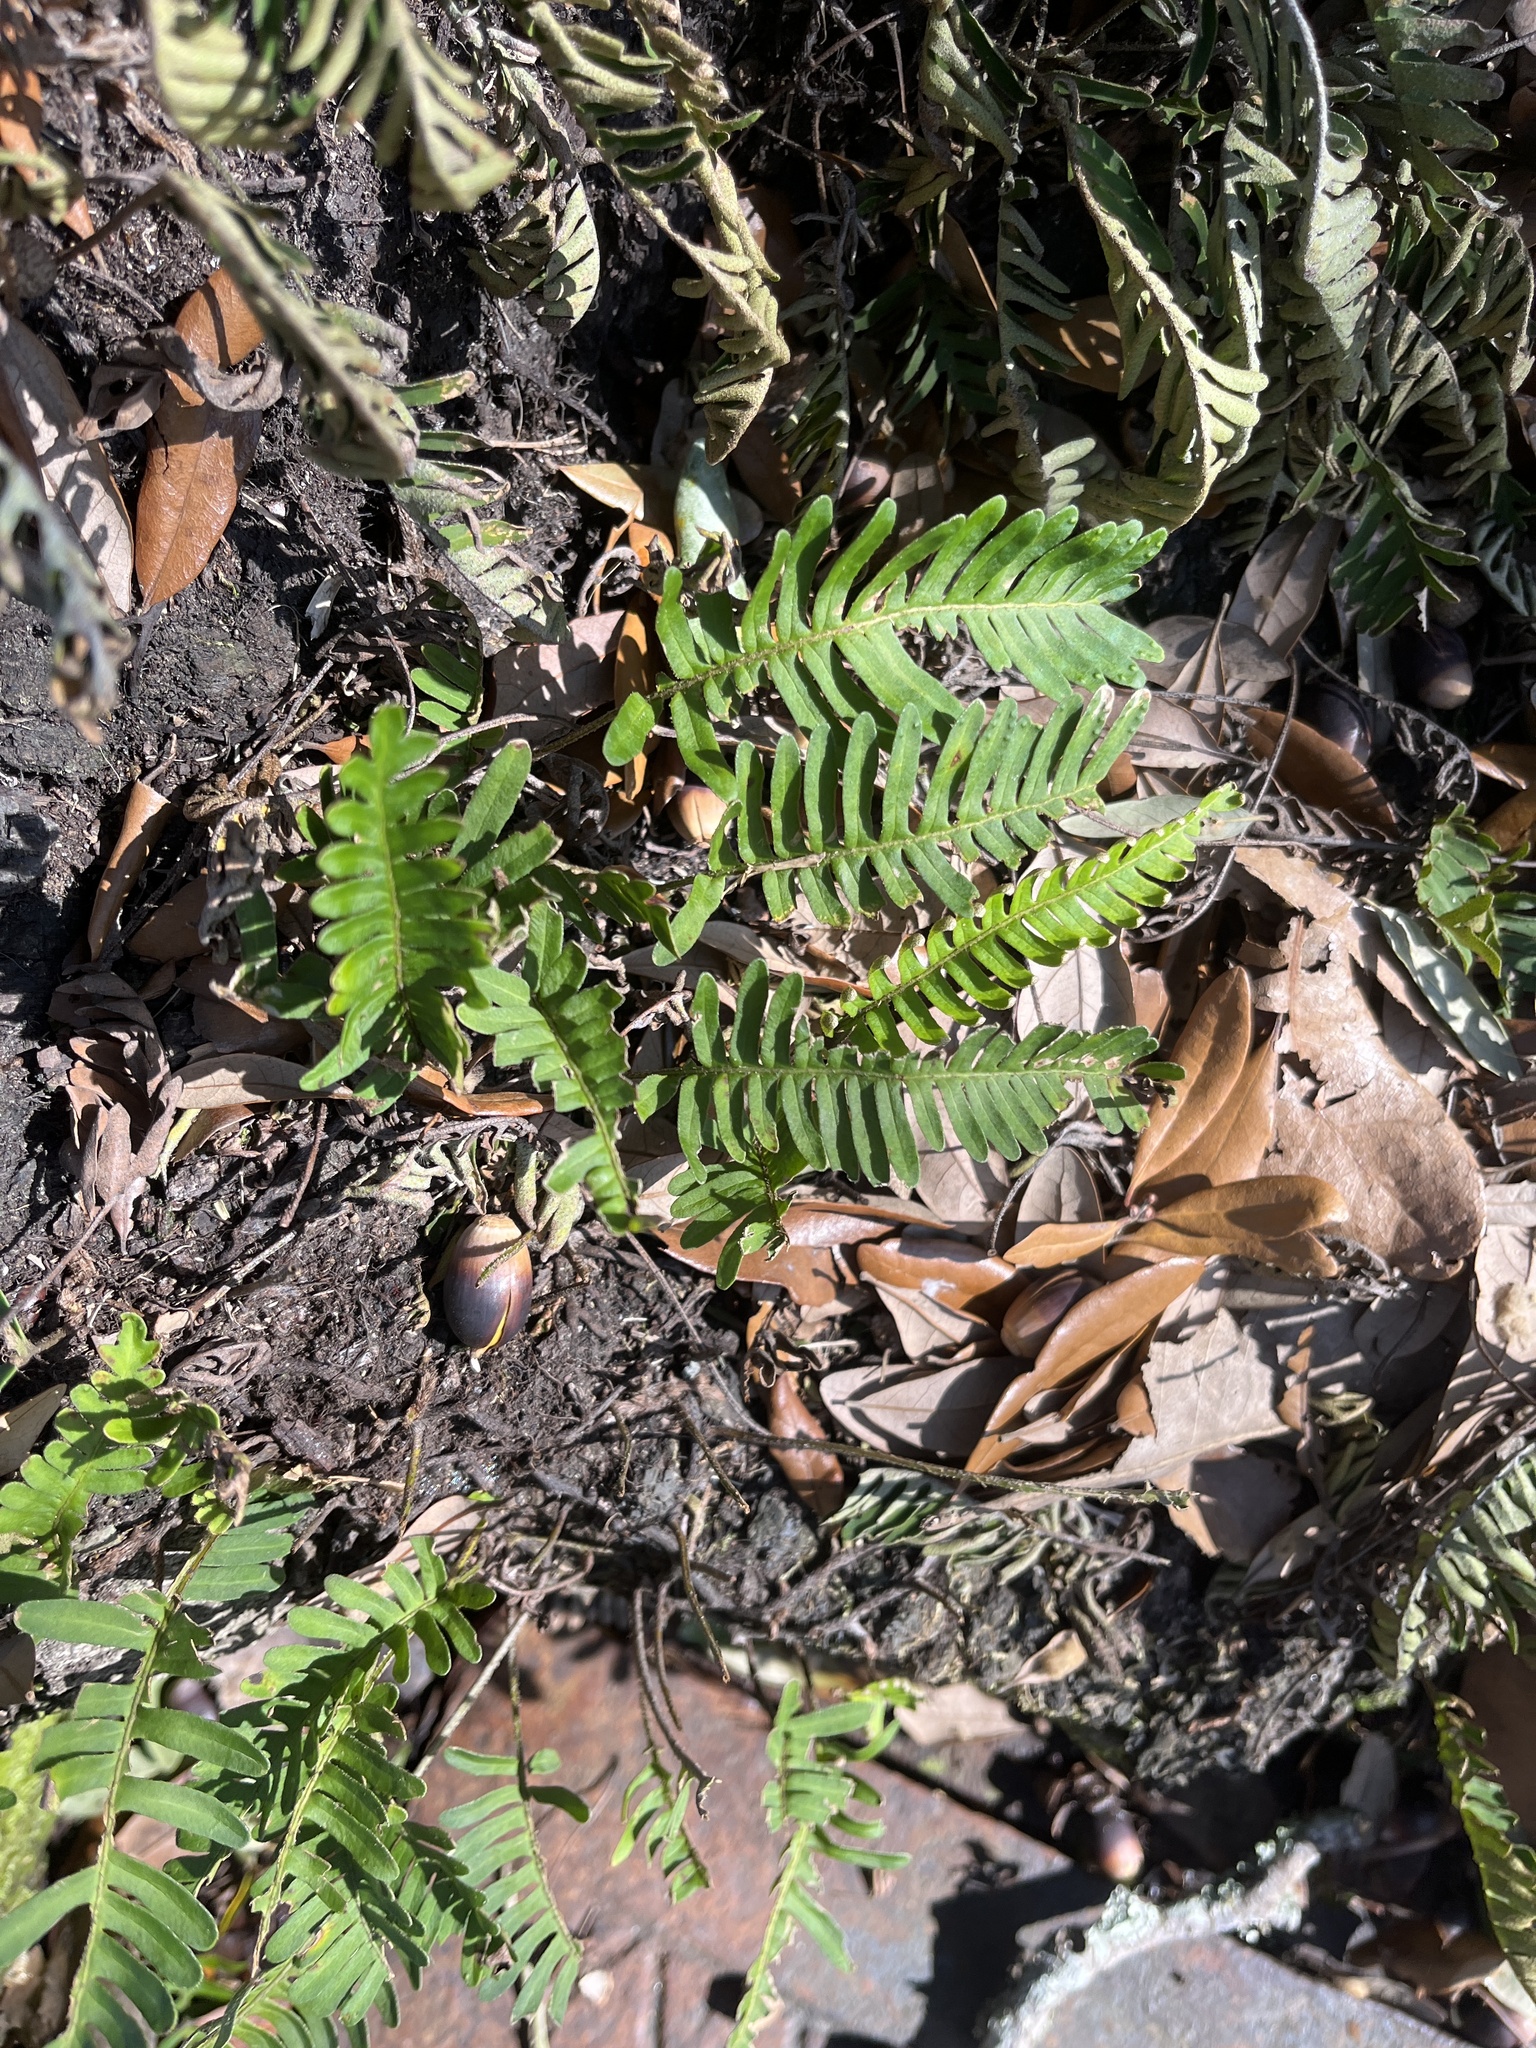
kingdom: Plantae
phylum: Tracheophyta
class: Polypodiopsida
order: Polypodiales
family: Polypodiaceae
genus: Pleopeltis
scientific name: Pleopeltis michauxiana
